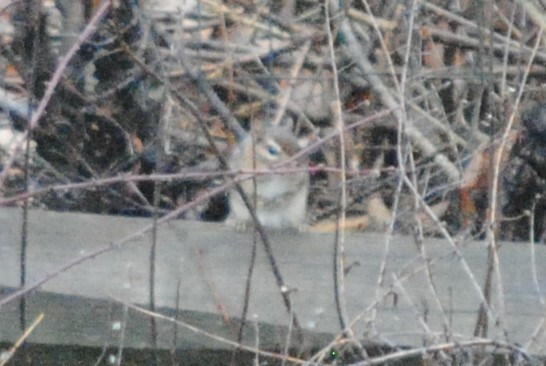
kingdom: Animalia
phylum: Chordata
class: Mammalia
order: Rodentia
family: Sciuridae
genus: Tamias
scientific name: Tamias striatus
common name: Eastern chipmunk
